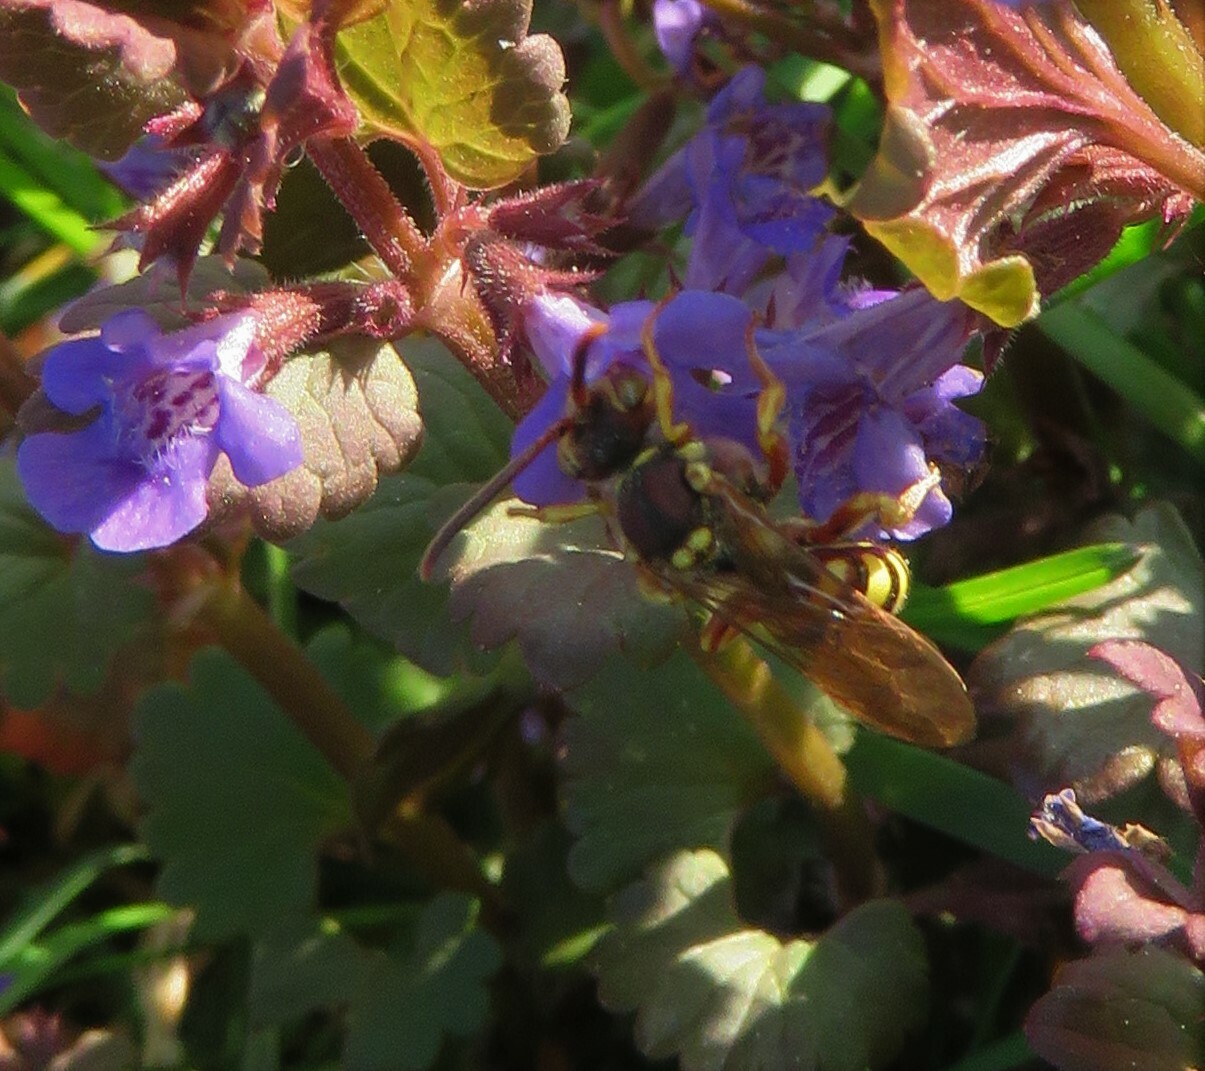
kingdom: Animalia
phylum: Arthropoda
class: Insecta
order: Hymenoptera
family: Apidae
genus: Nomada
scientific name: Nomada luteoloides
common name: Black-and-yellow nomad bee
